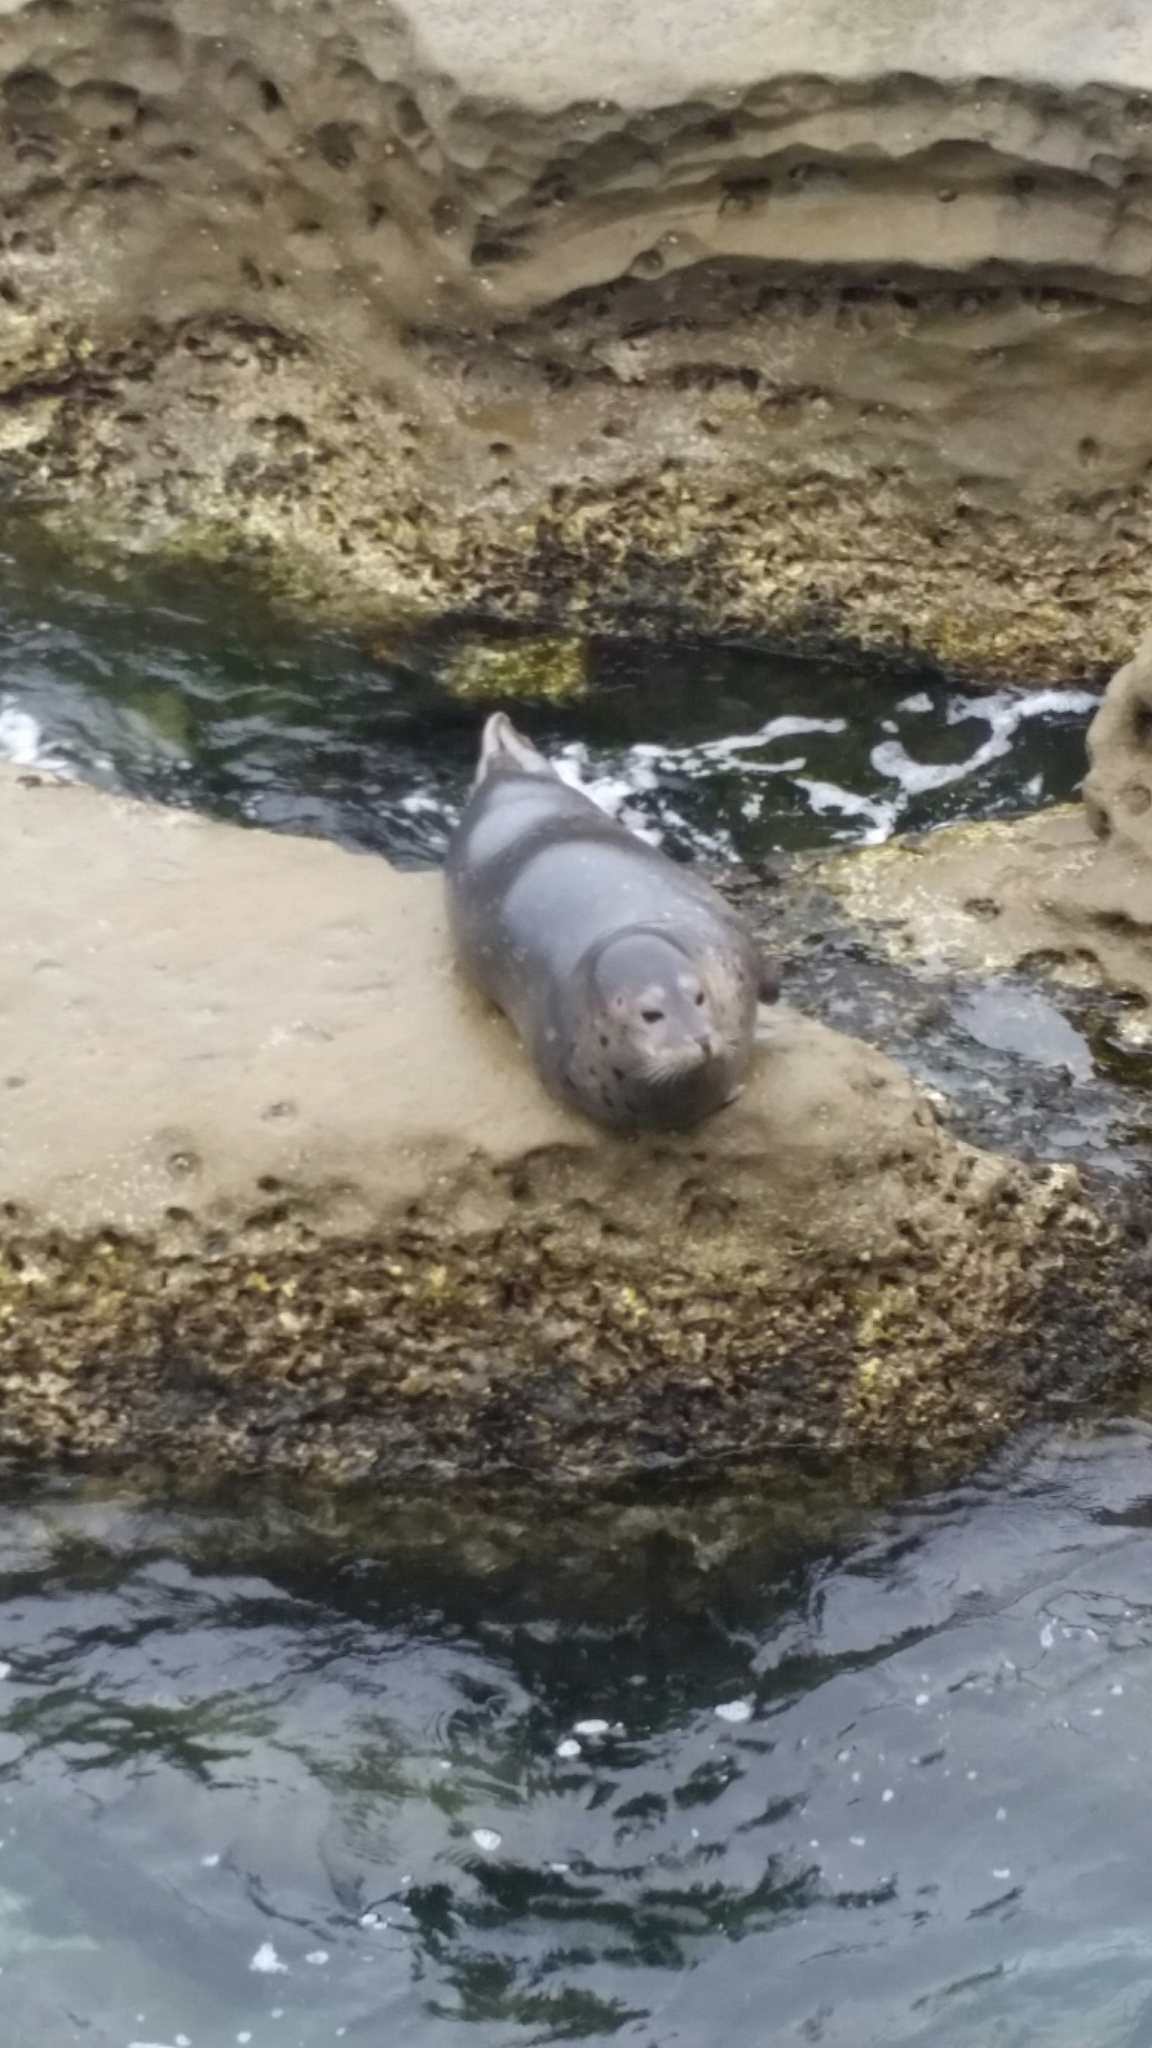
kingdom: Animalia
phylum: Chordata
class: Mammalia
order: Carnivora
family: Phocidae
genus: Phoca
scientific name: Phoca vitulina
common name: Harbor seal
